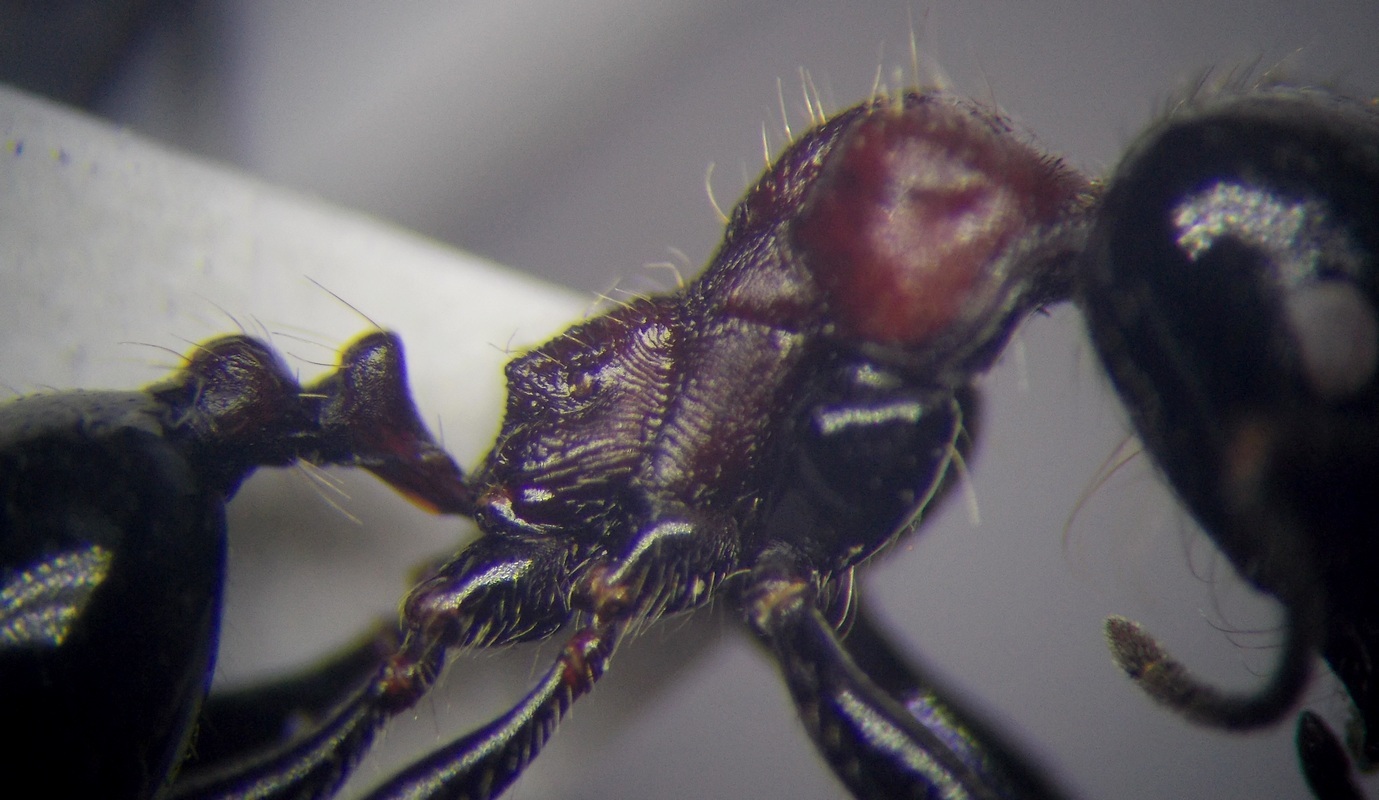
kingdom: Animalia
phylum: Arthropoda
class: Insecta
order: Hymenoptera
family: Formicidae
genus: Messor
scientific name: Messor denticulatus
